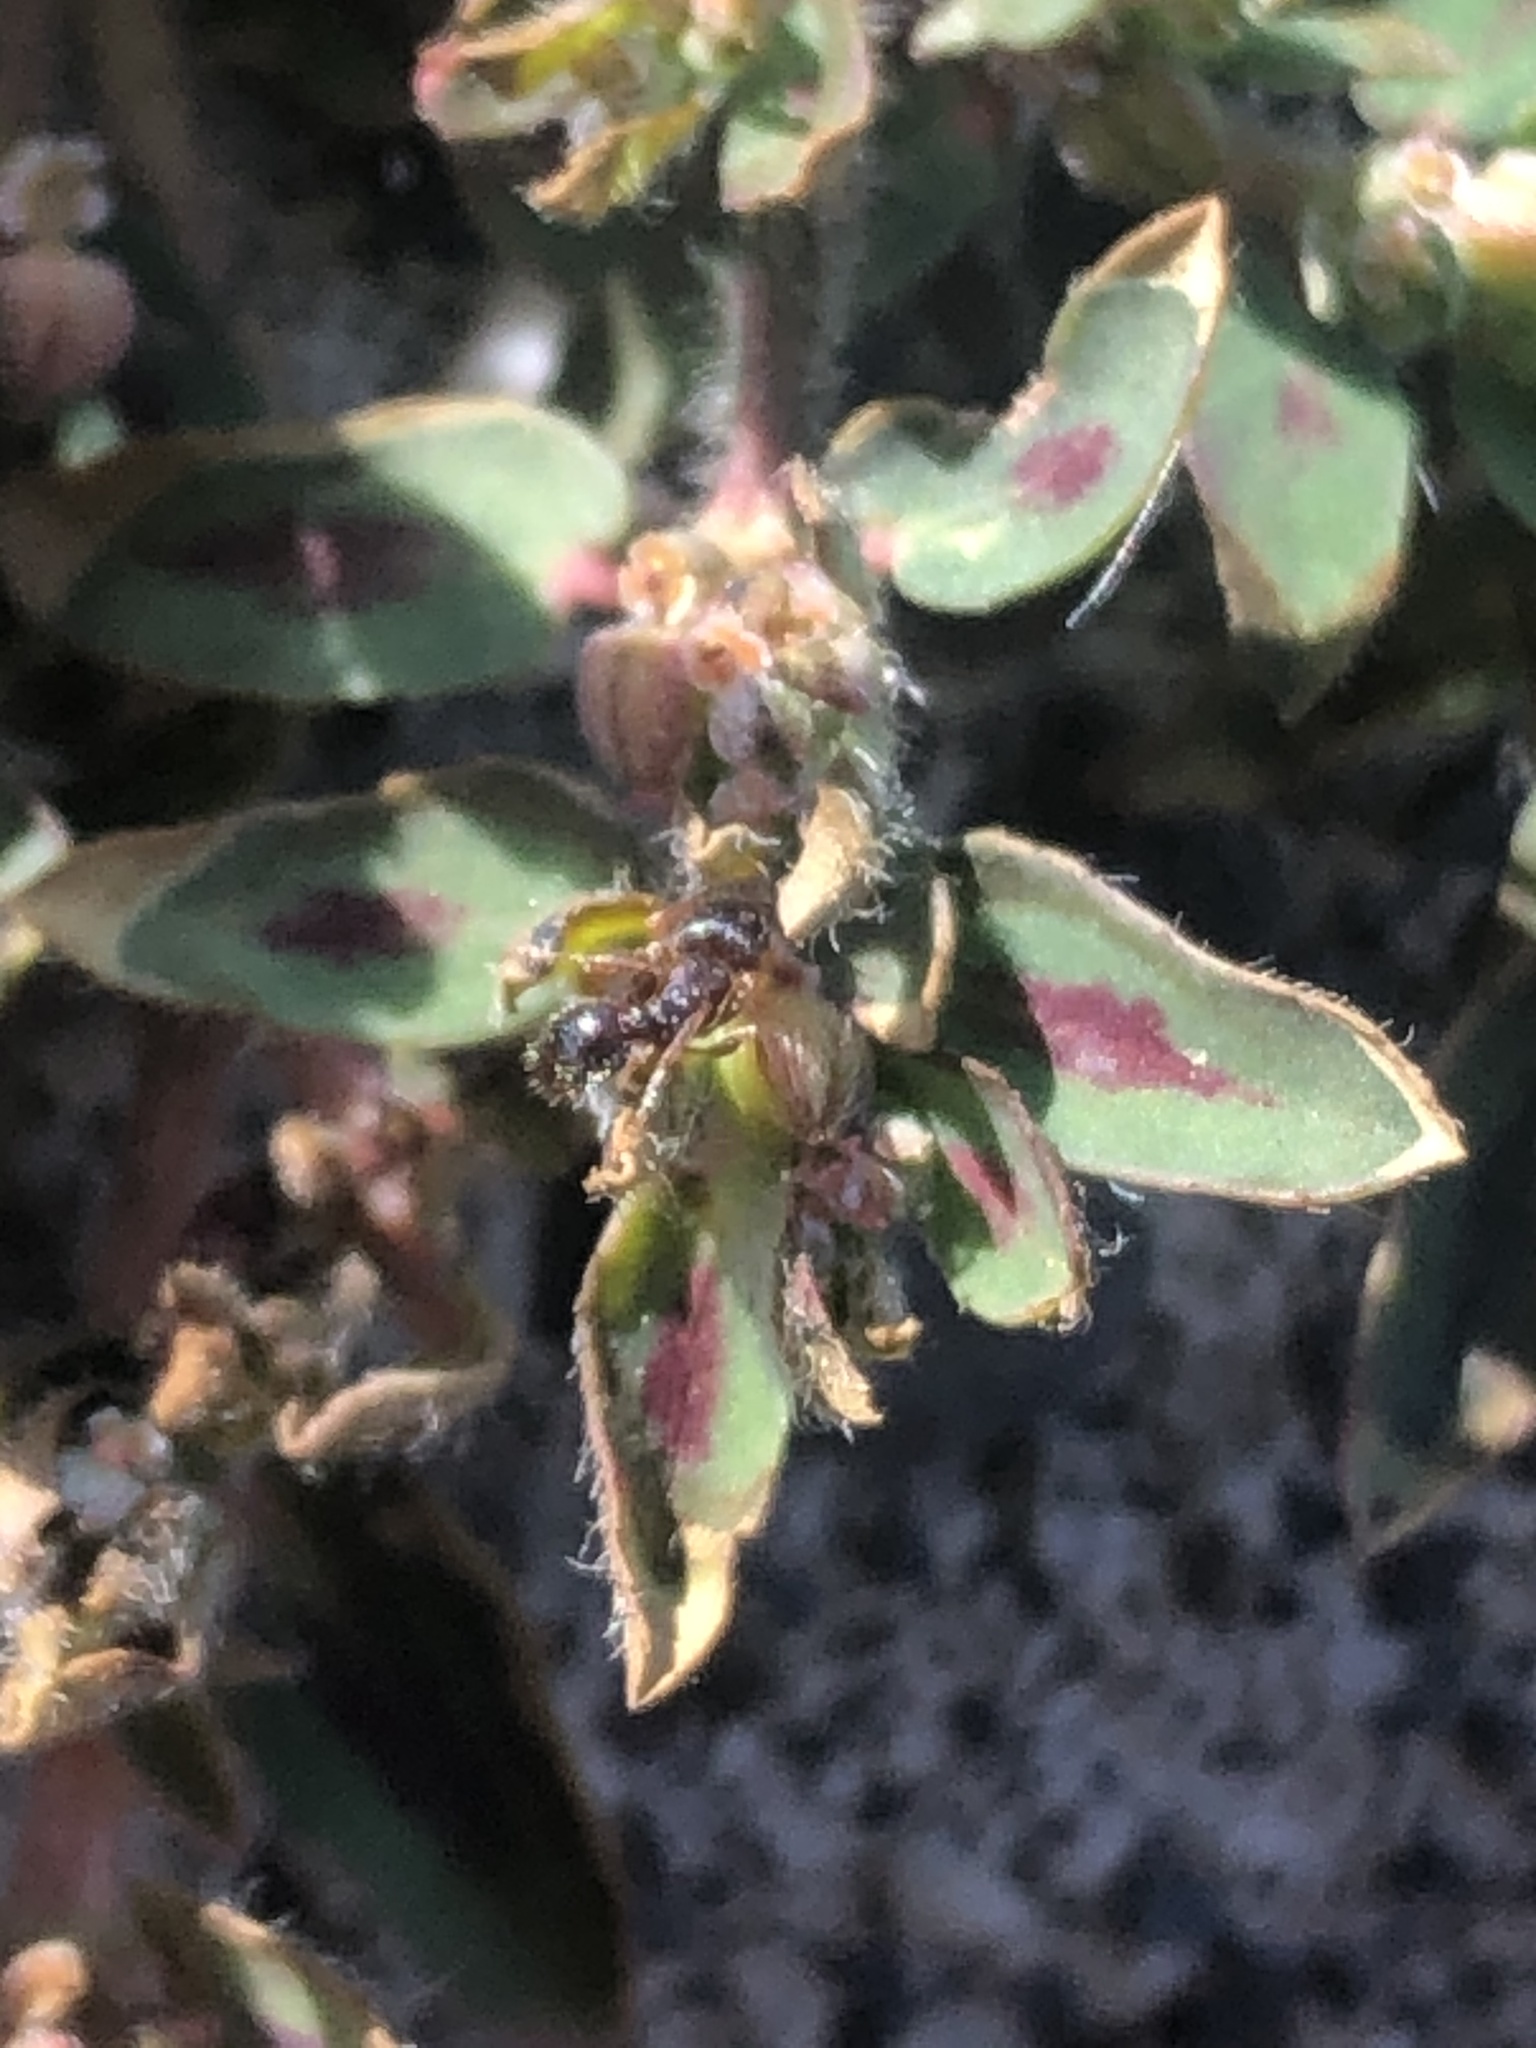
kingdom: Animalia
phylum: Arthropoda
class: Insecta
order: Hymenoptera
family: Formicidae
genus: Tetramorium
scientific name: Tetramorium immigrans
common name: Pavement ant
